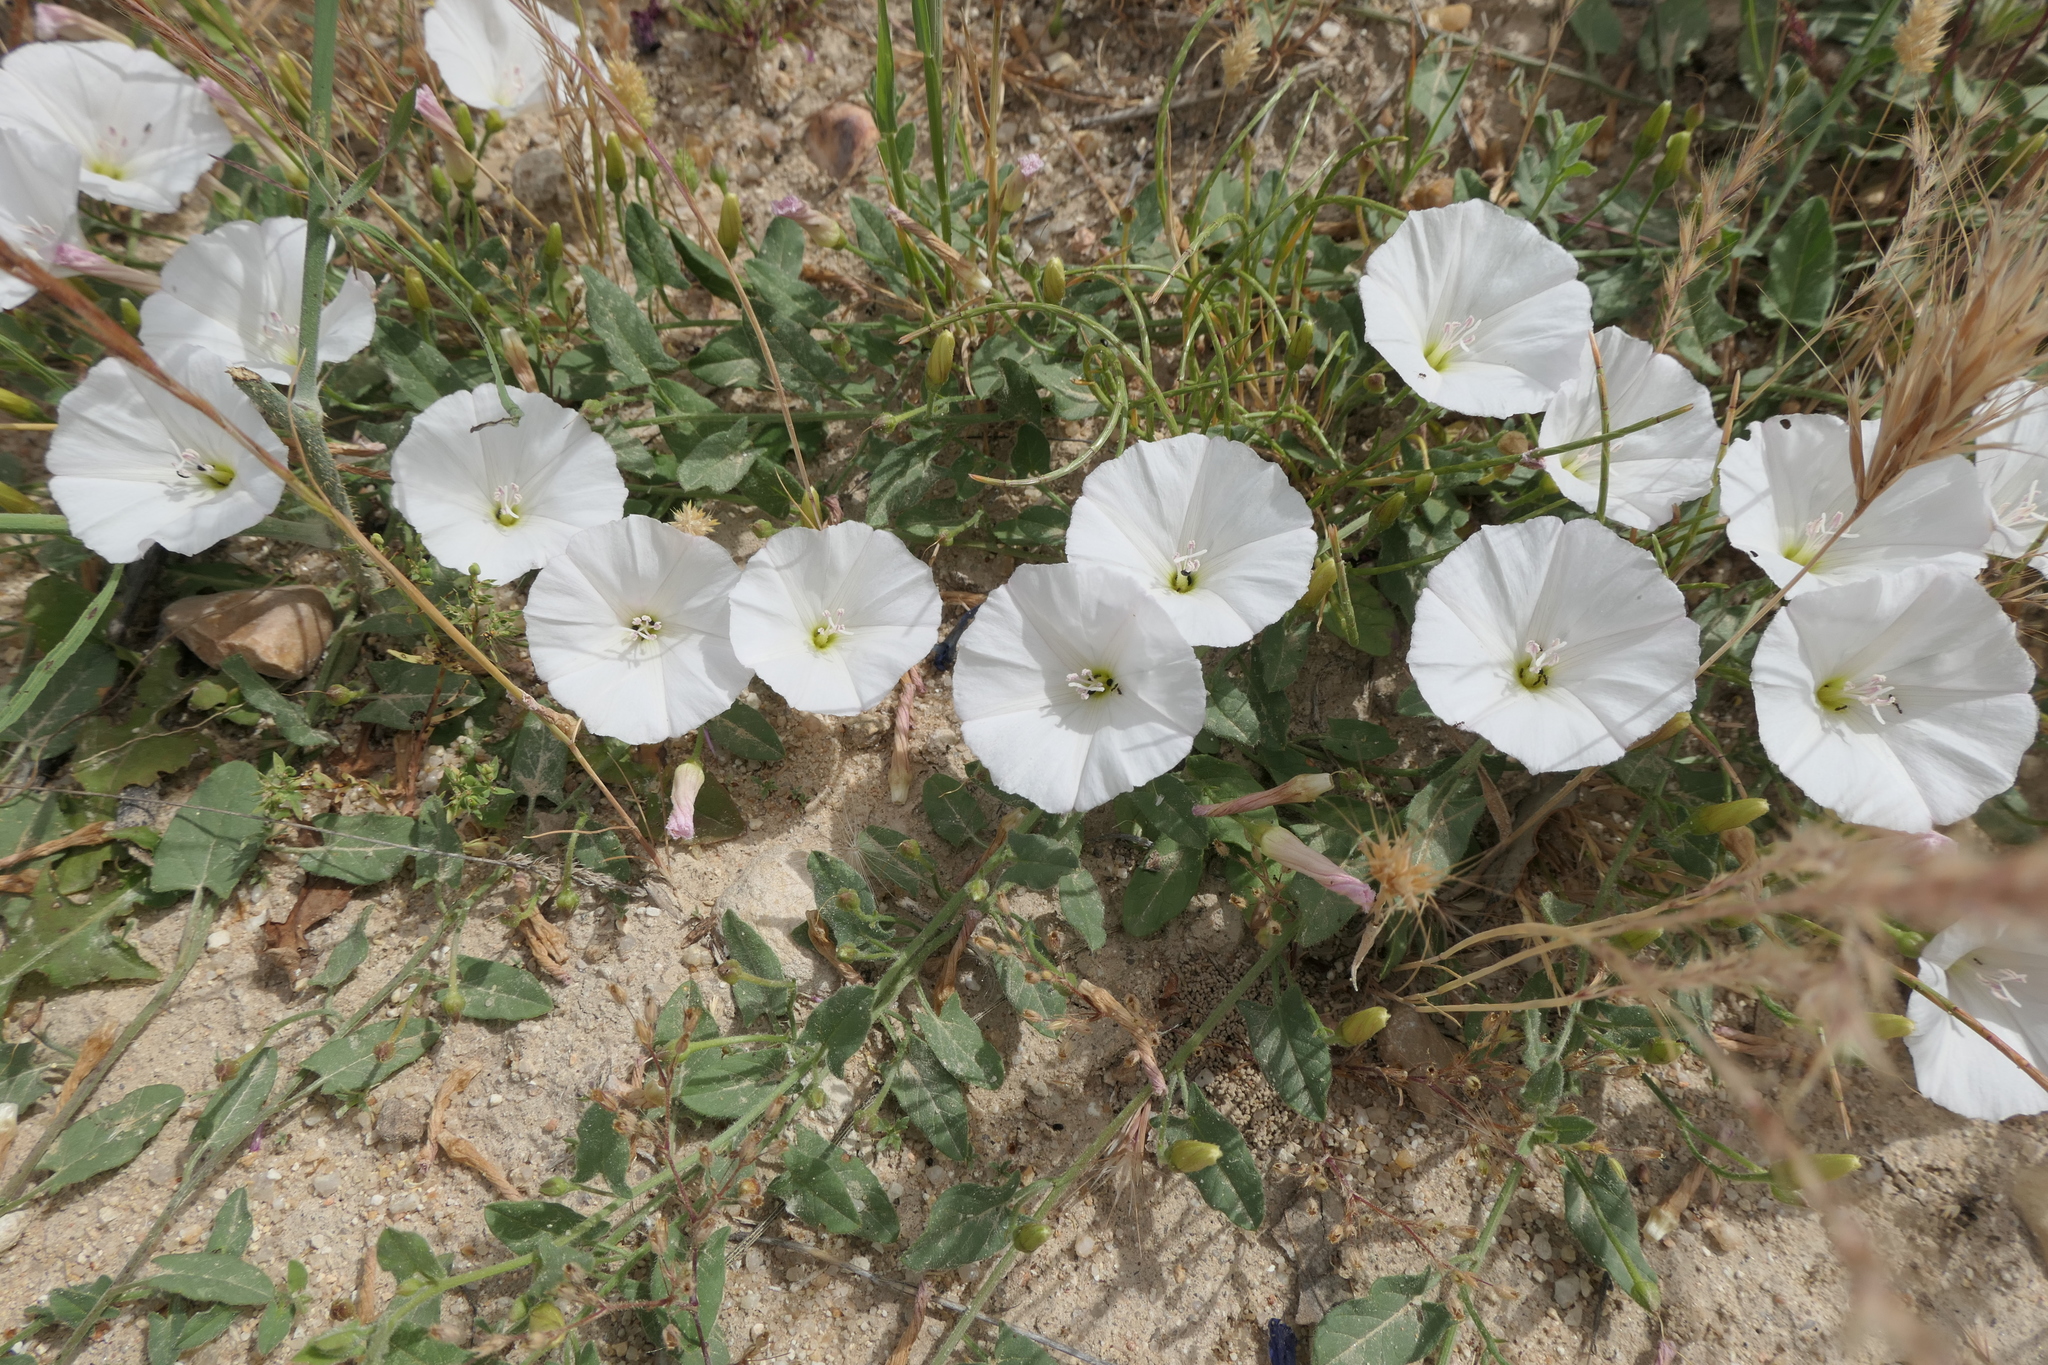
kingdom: Plantae
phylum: Tracheophyta
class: Magnoliopsida
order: Solanales
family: Convolvulaceae
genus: Convolvulus
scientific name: Convolvulus arvensis
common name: Field bindweed
